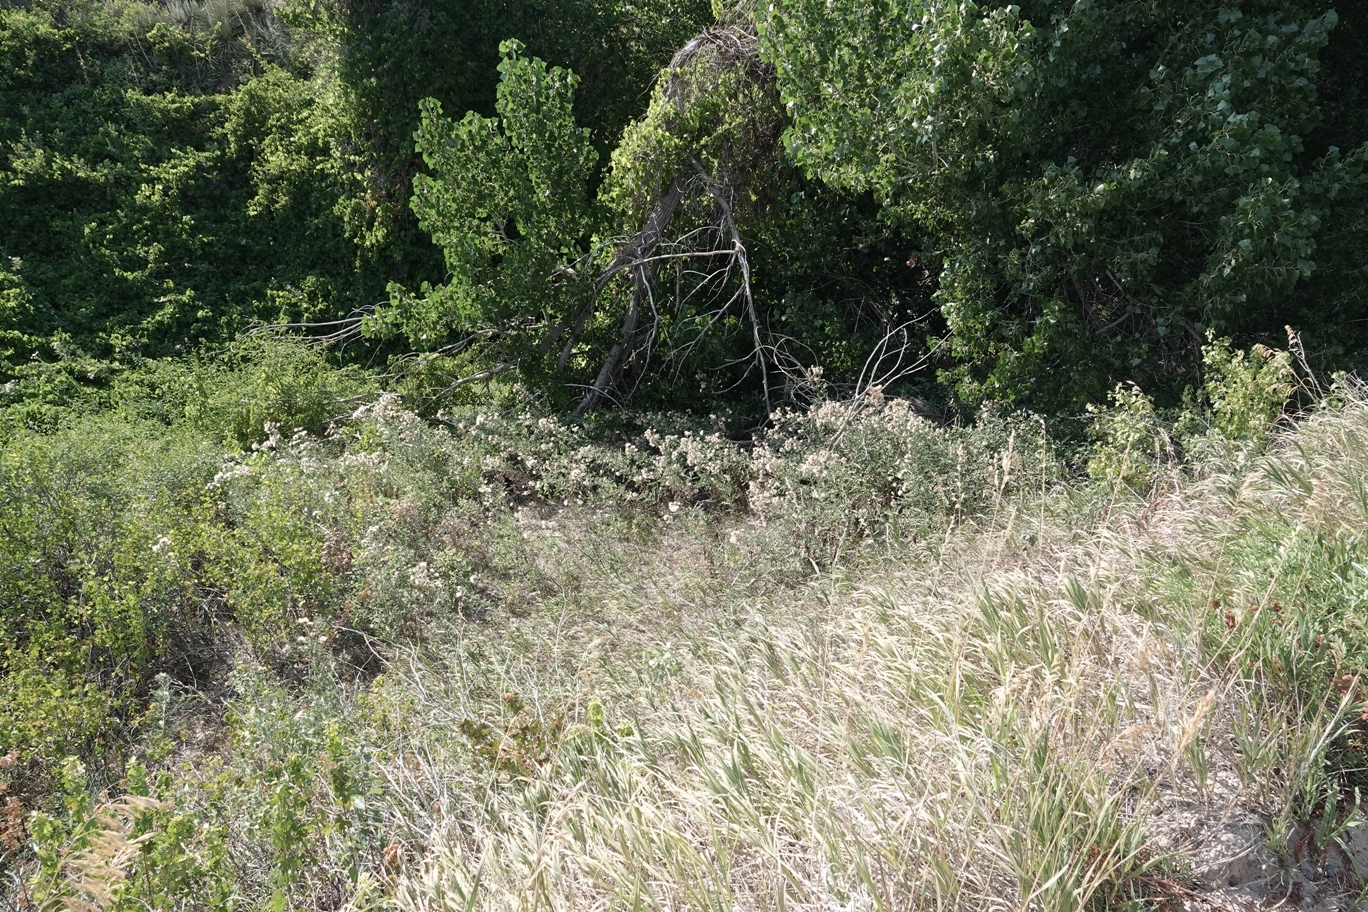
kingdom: Plantae
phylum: Tracheophyta
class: Magnoliopsida
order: Asterales
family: Asteraceae
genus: Cirsium
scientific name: Cirsium arvense
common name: Creeping thistle
